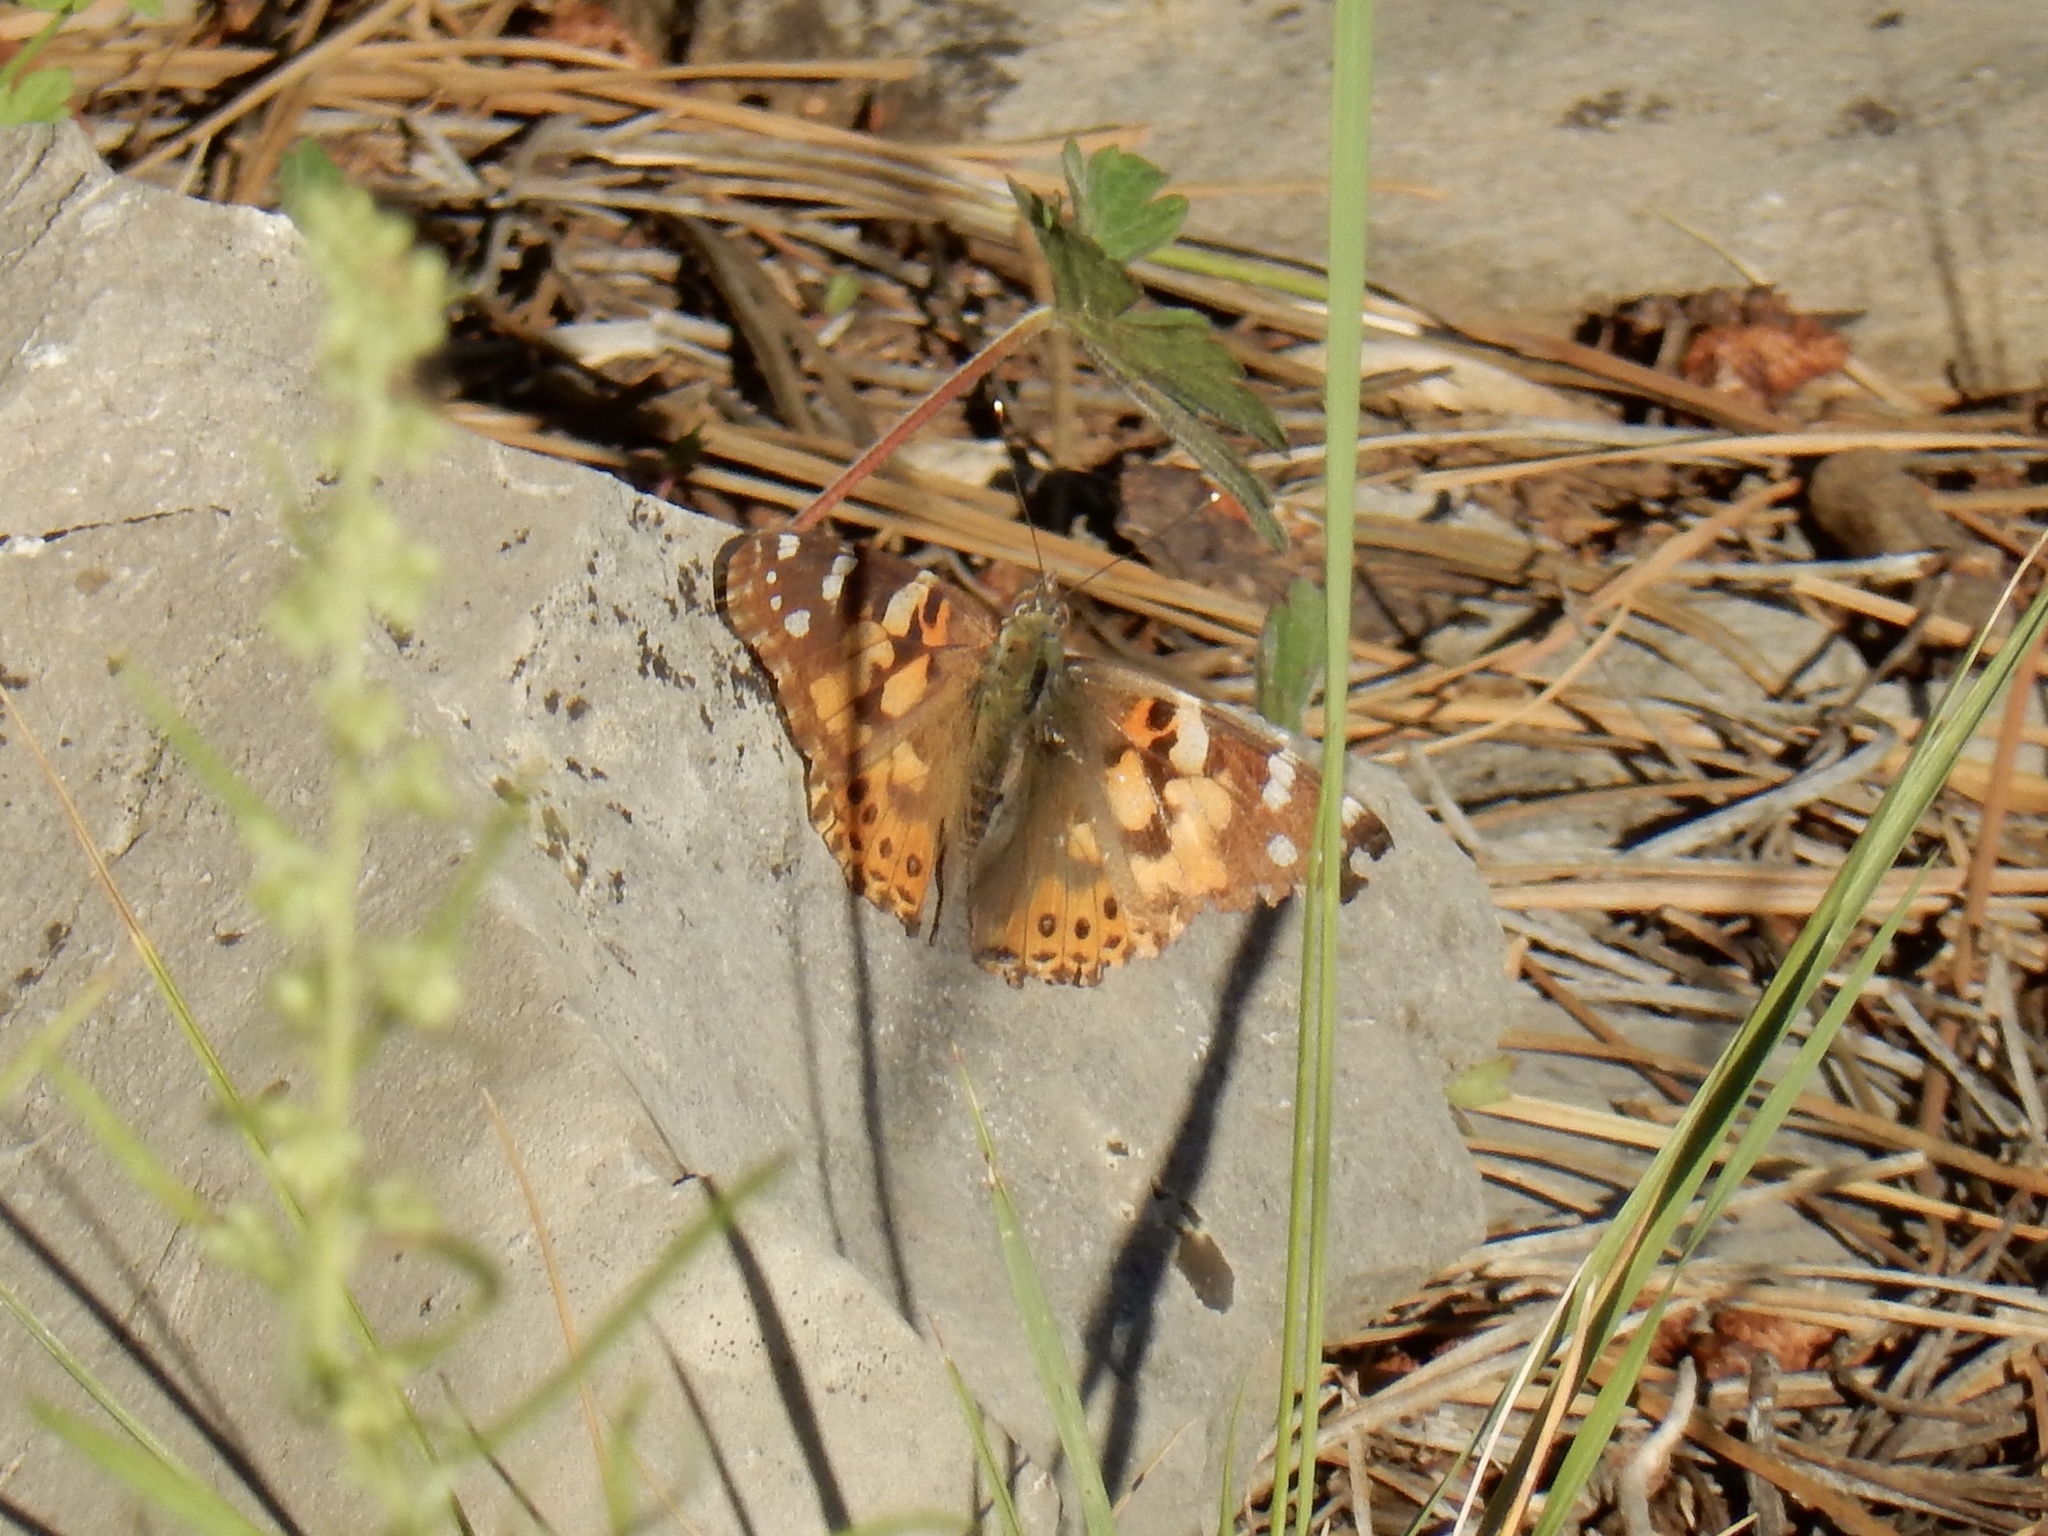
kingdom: Animalia
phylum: Arthropoda
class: Insecta
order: Lepidoptera
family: Nymphalidae
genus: Vanessa
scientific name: Vanessa cardui
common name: Painted lady
